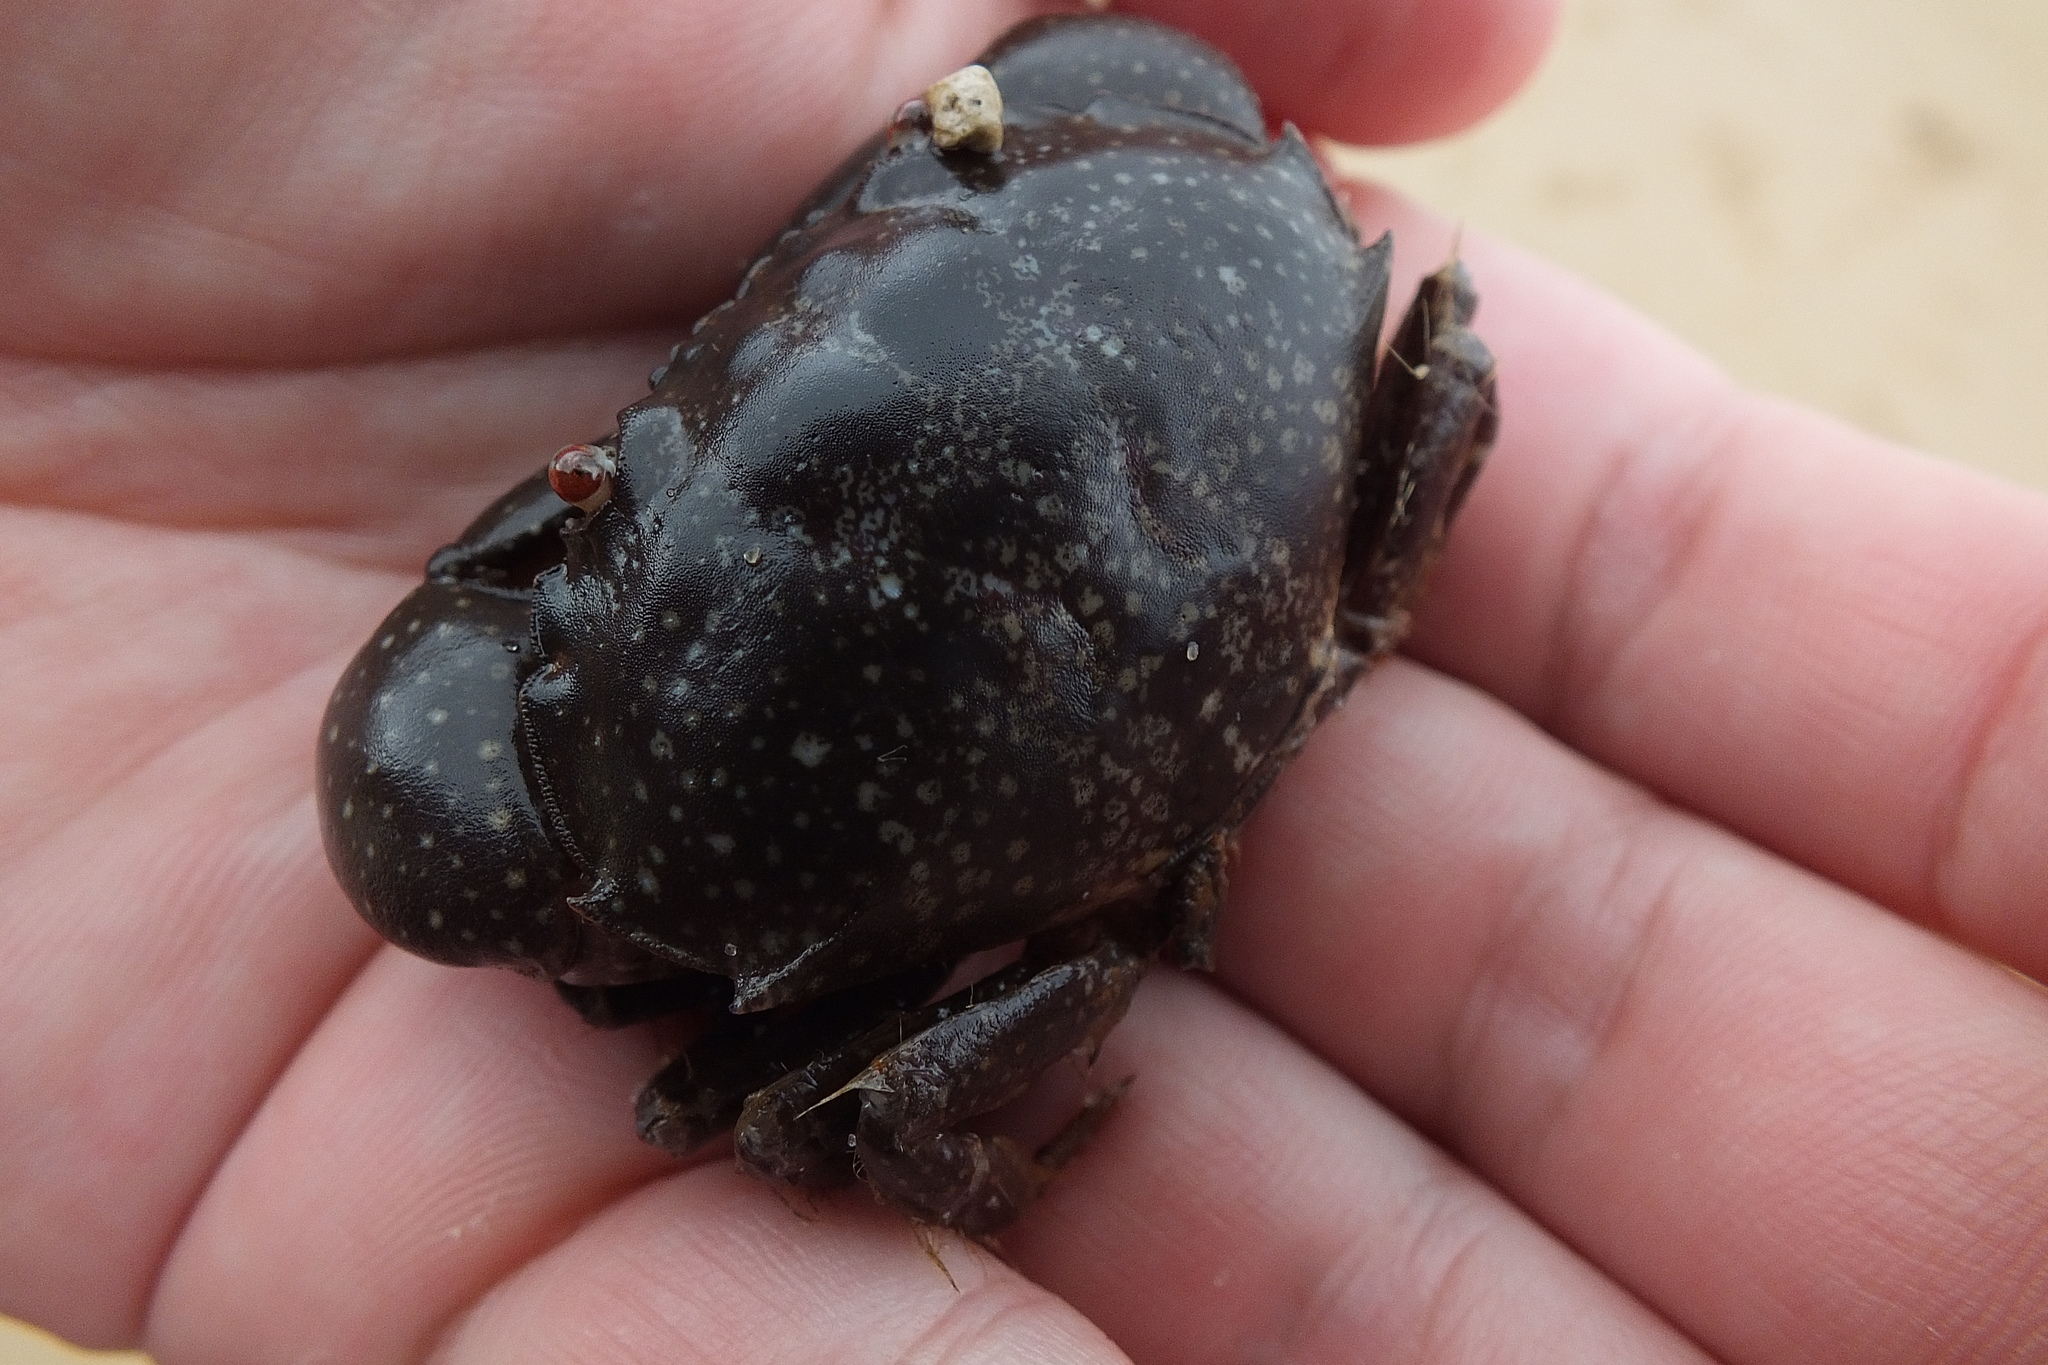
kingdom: Animalia
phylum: Arthropoda
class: Malacostraca
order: Decapoda
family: Menippidae
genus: Myomenippe
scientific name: Myomenippe fornasinii
